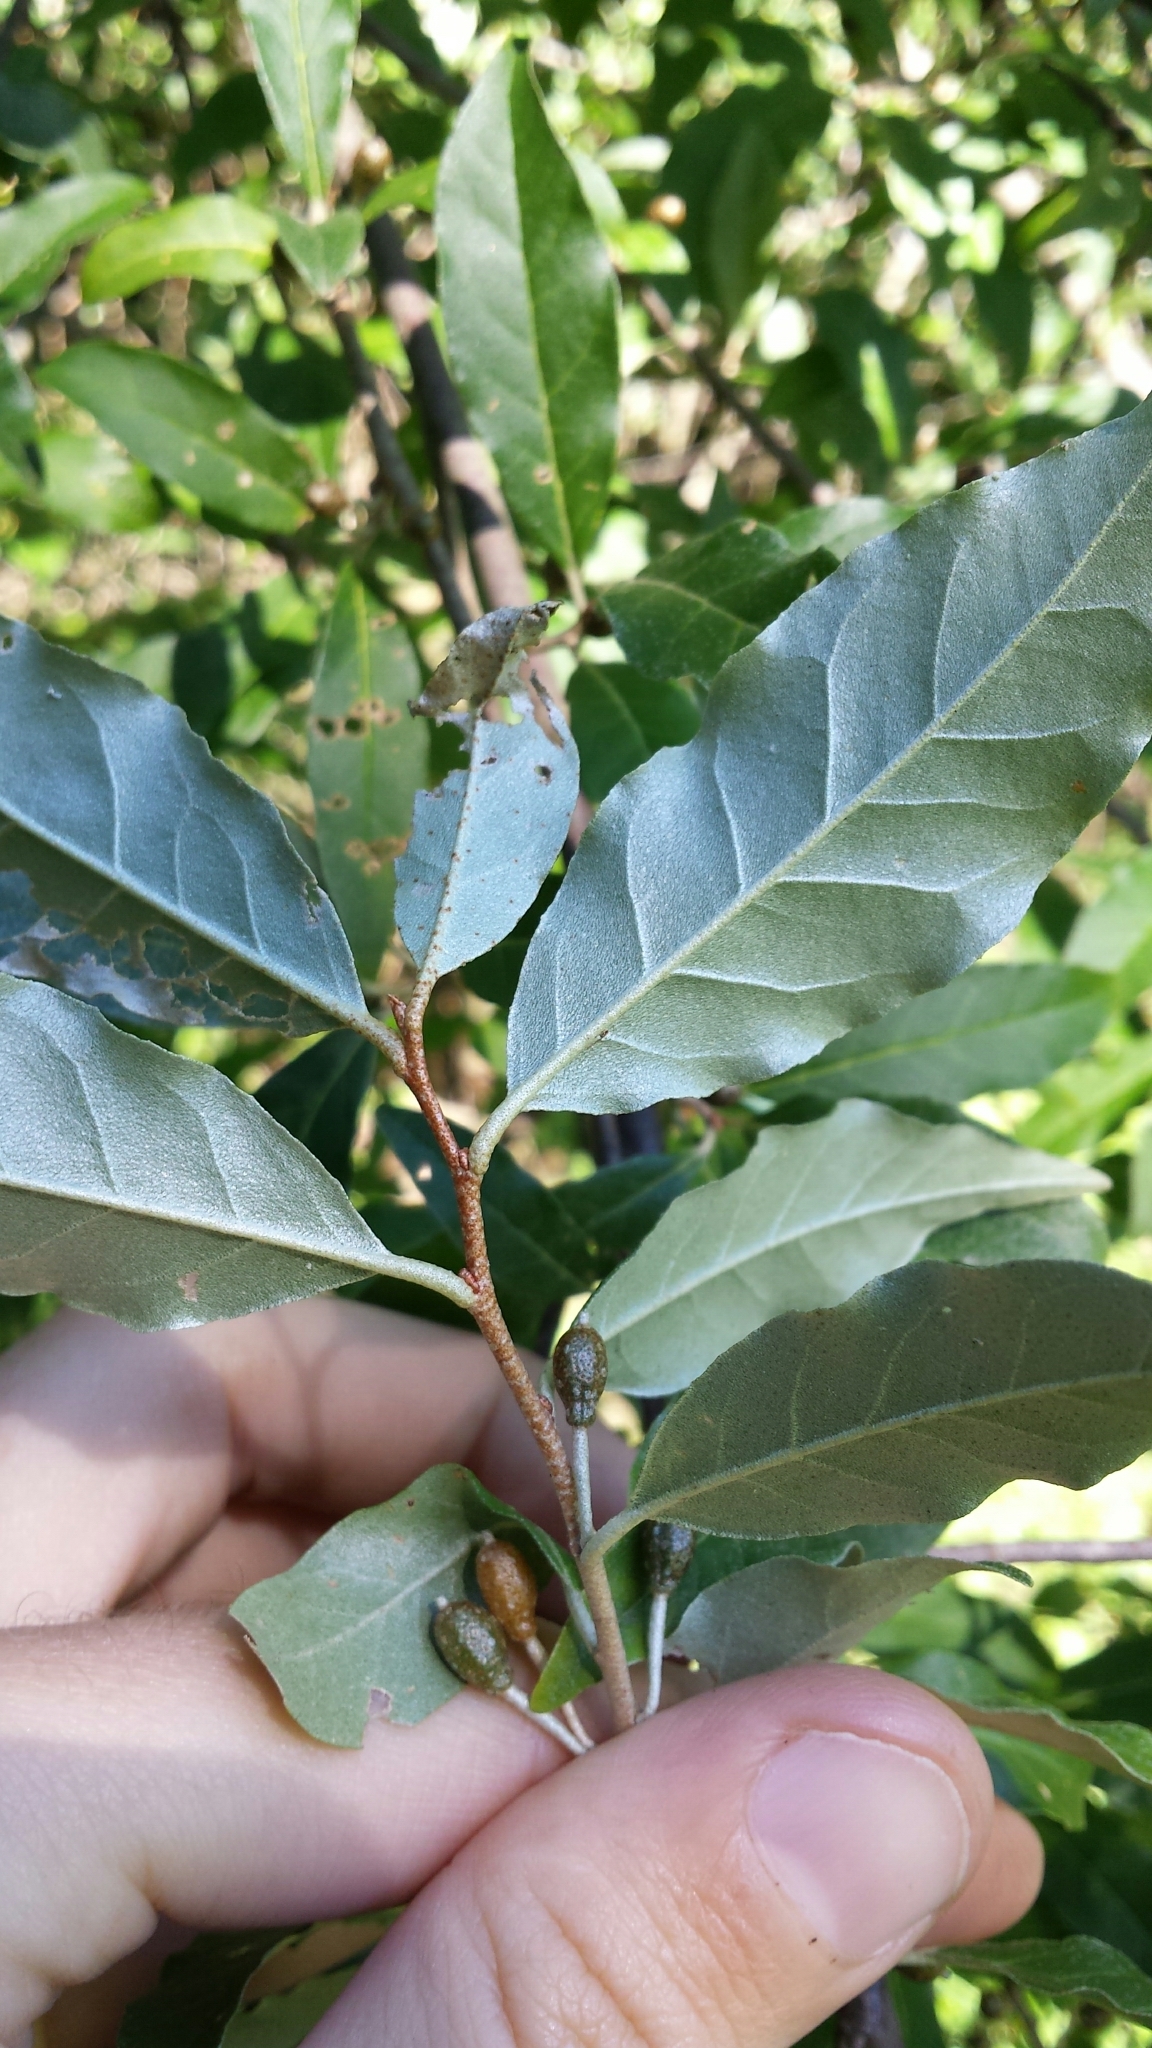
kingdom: Plantae
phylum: Tracheophyta
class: Magnoliopsida
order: Rosales
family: Elaeagnaceae
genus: Elaeagnus
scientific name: Elaeagnus umbellata
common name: Autumn olive
